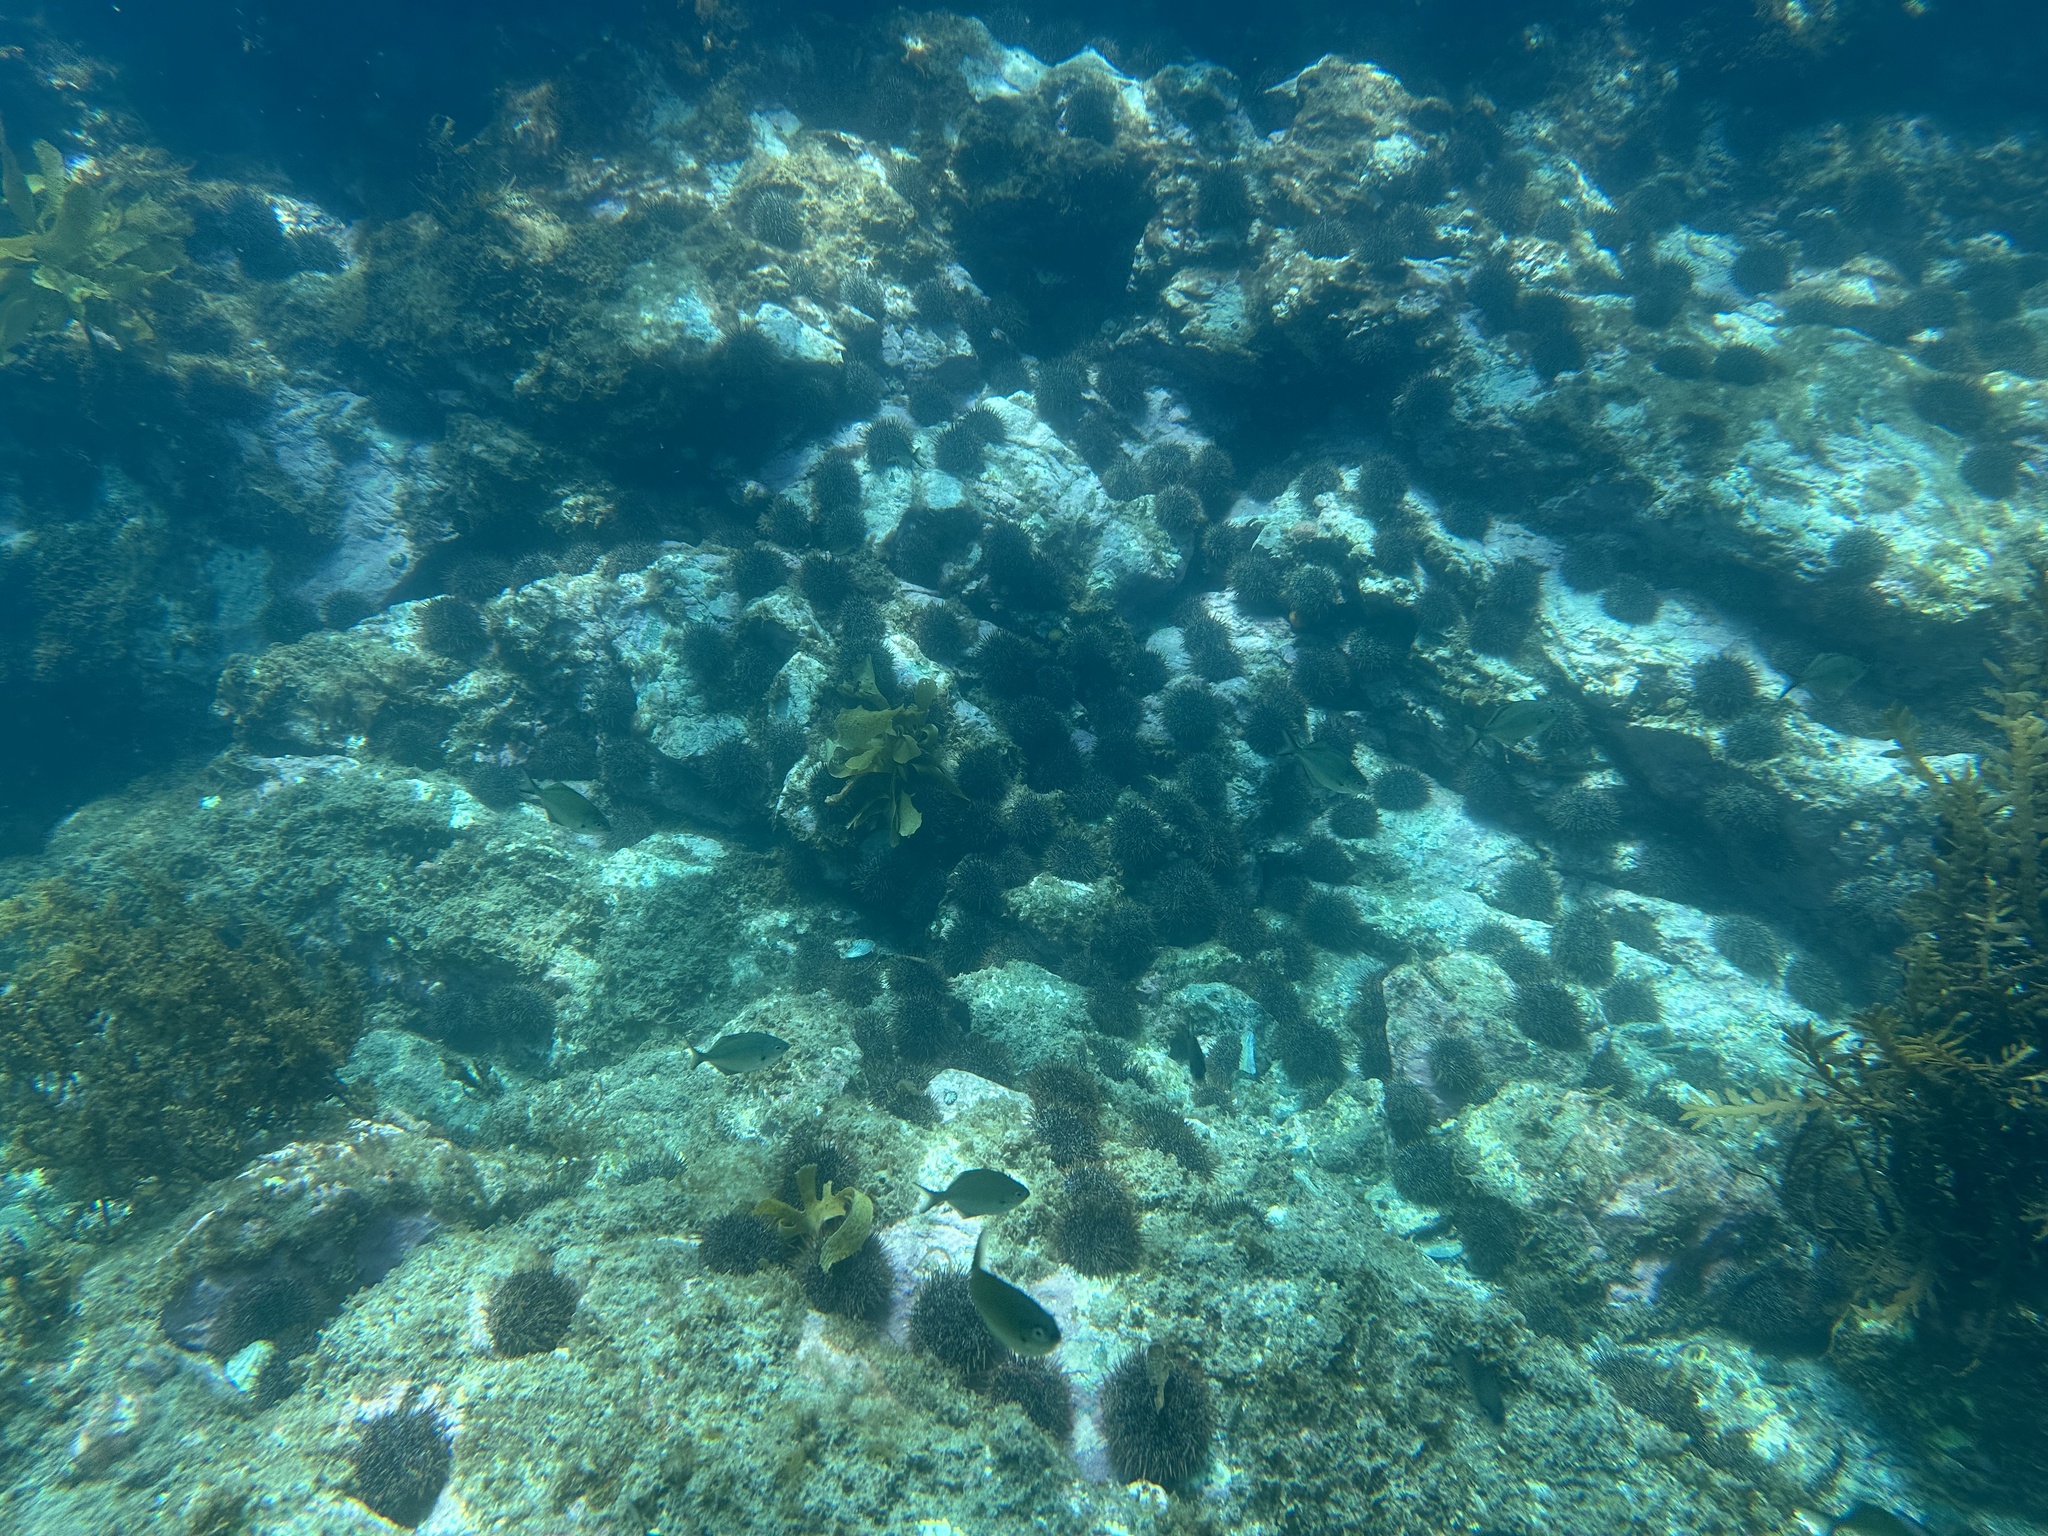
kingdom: Animalia
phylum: Echinodermata
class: Echinoidea
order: Camarodonta
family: Echinometridae
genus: Evechinus
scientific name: Evechinus chloroticus
